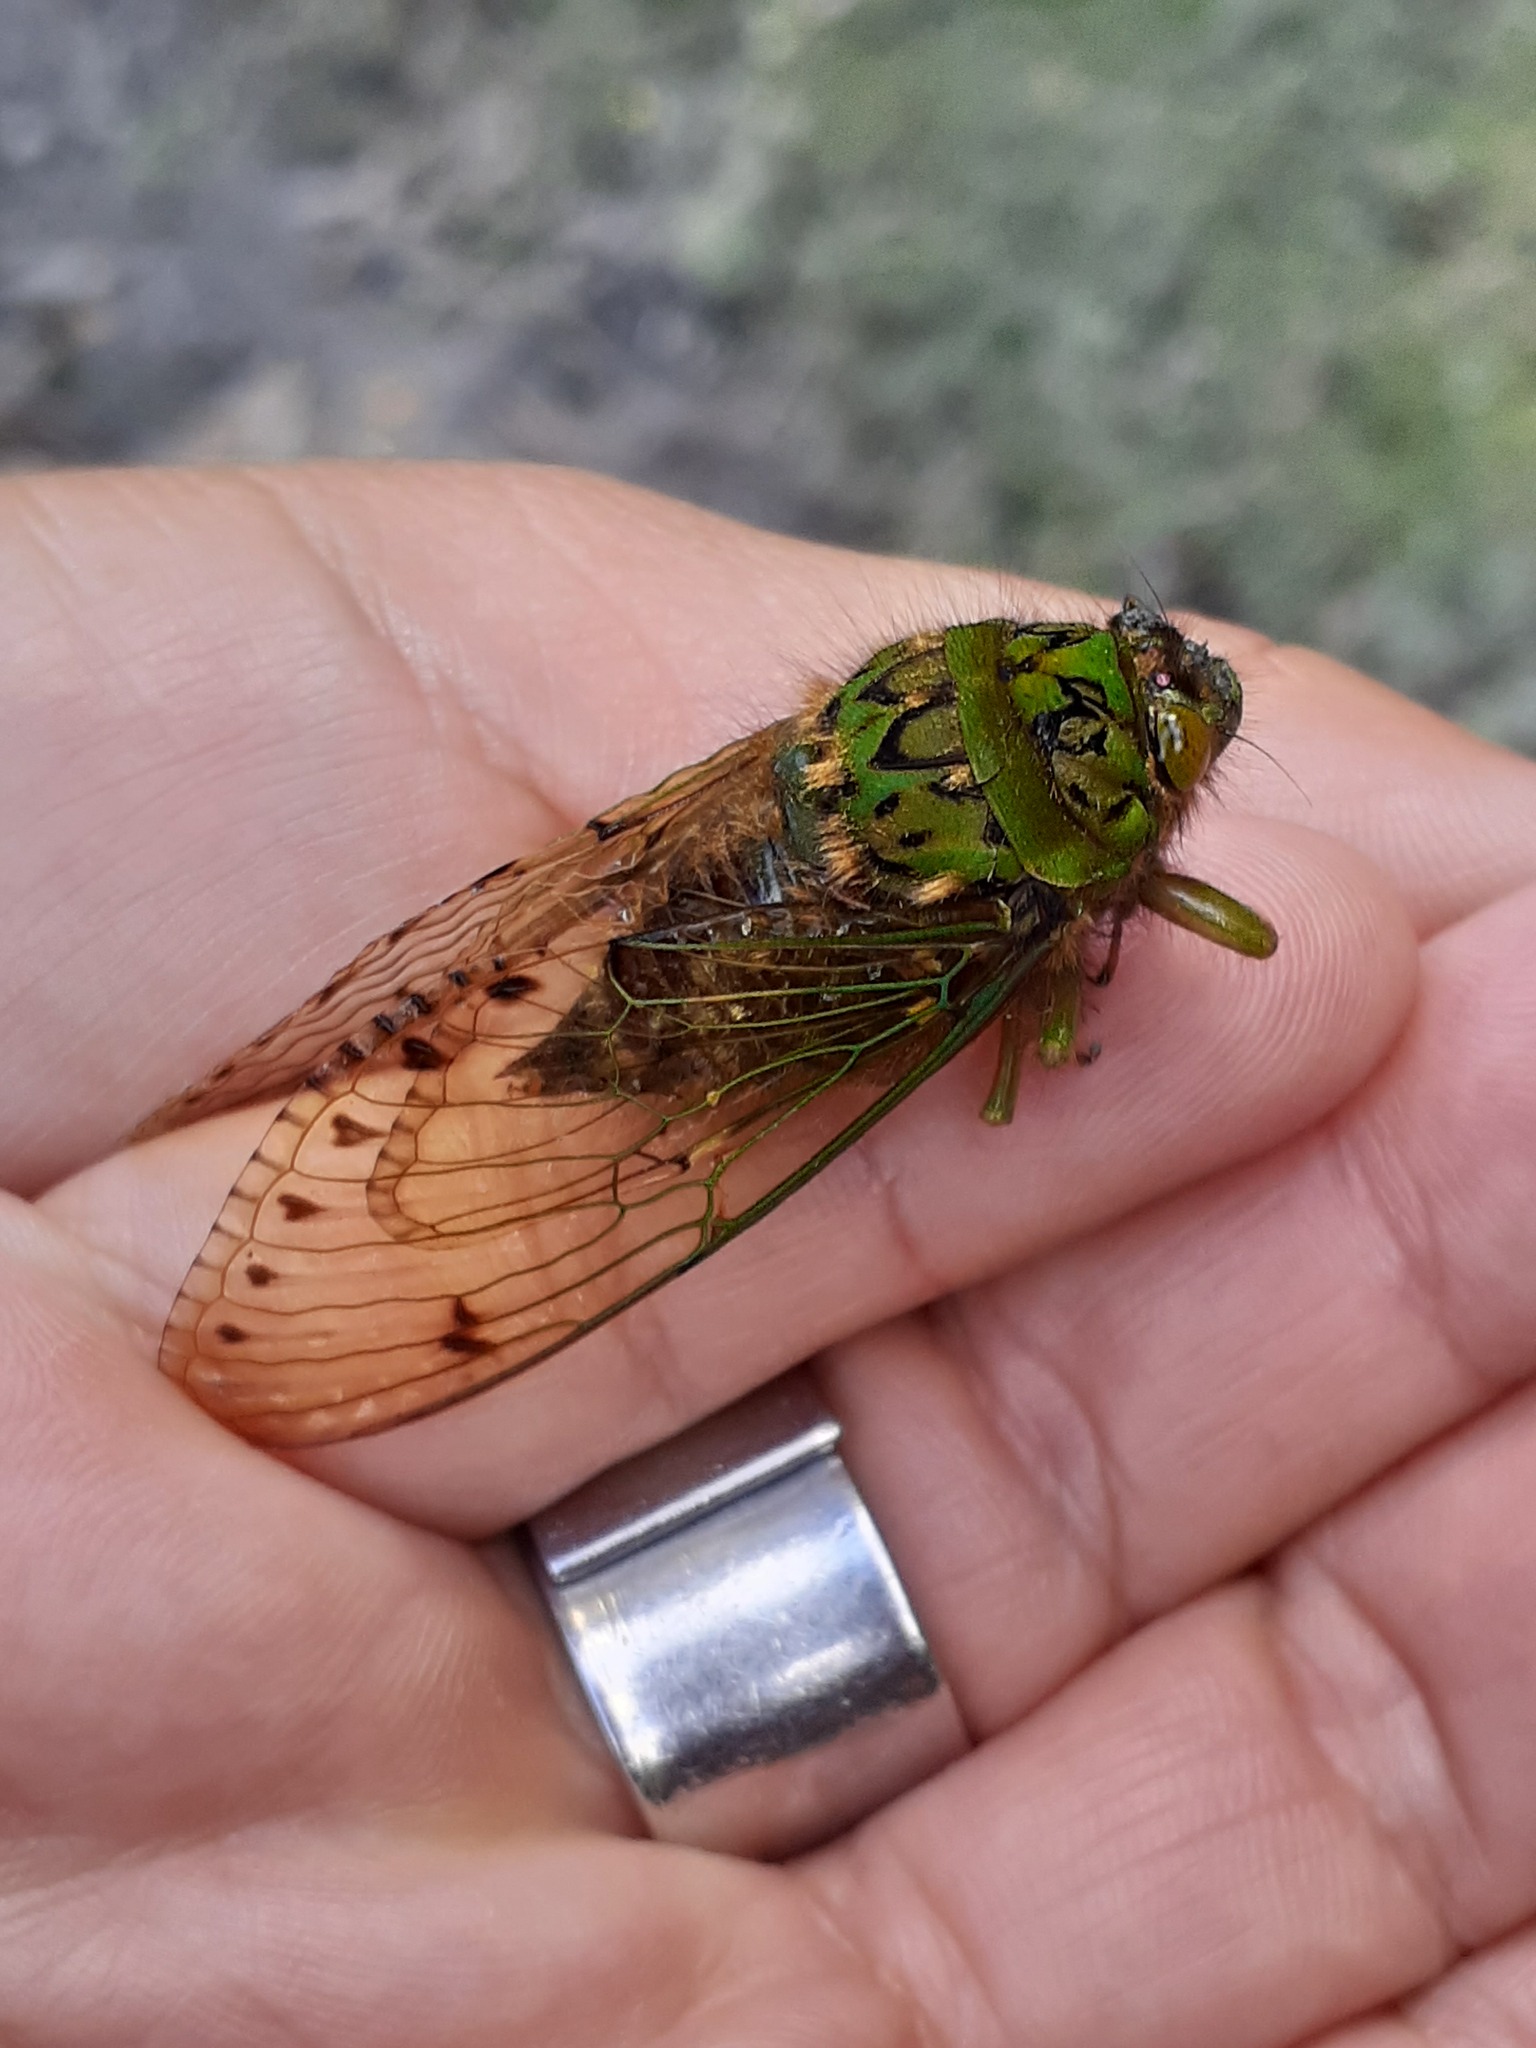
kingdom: Animalia
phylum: Arthropoda
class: Insecta
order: Hemiptera
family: Cicadidae
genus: Carineta
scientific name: Carineta castaneopercula
